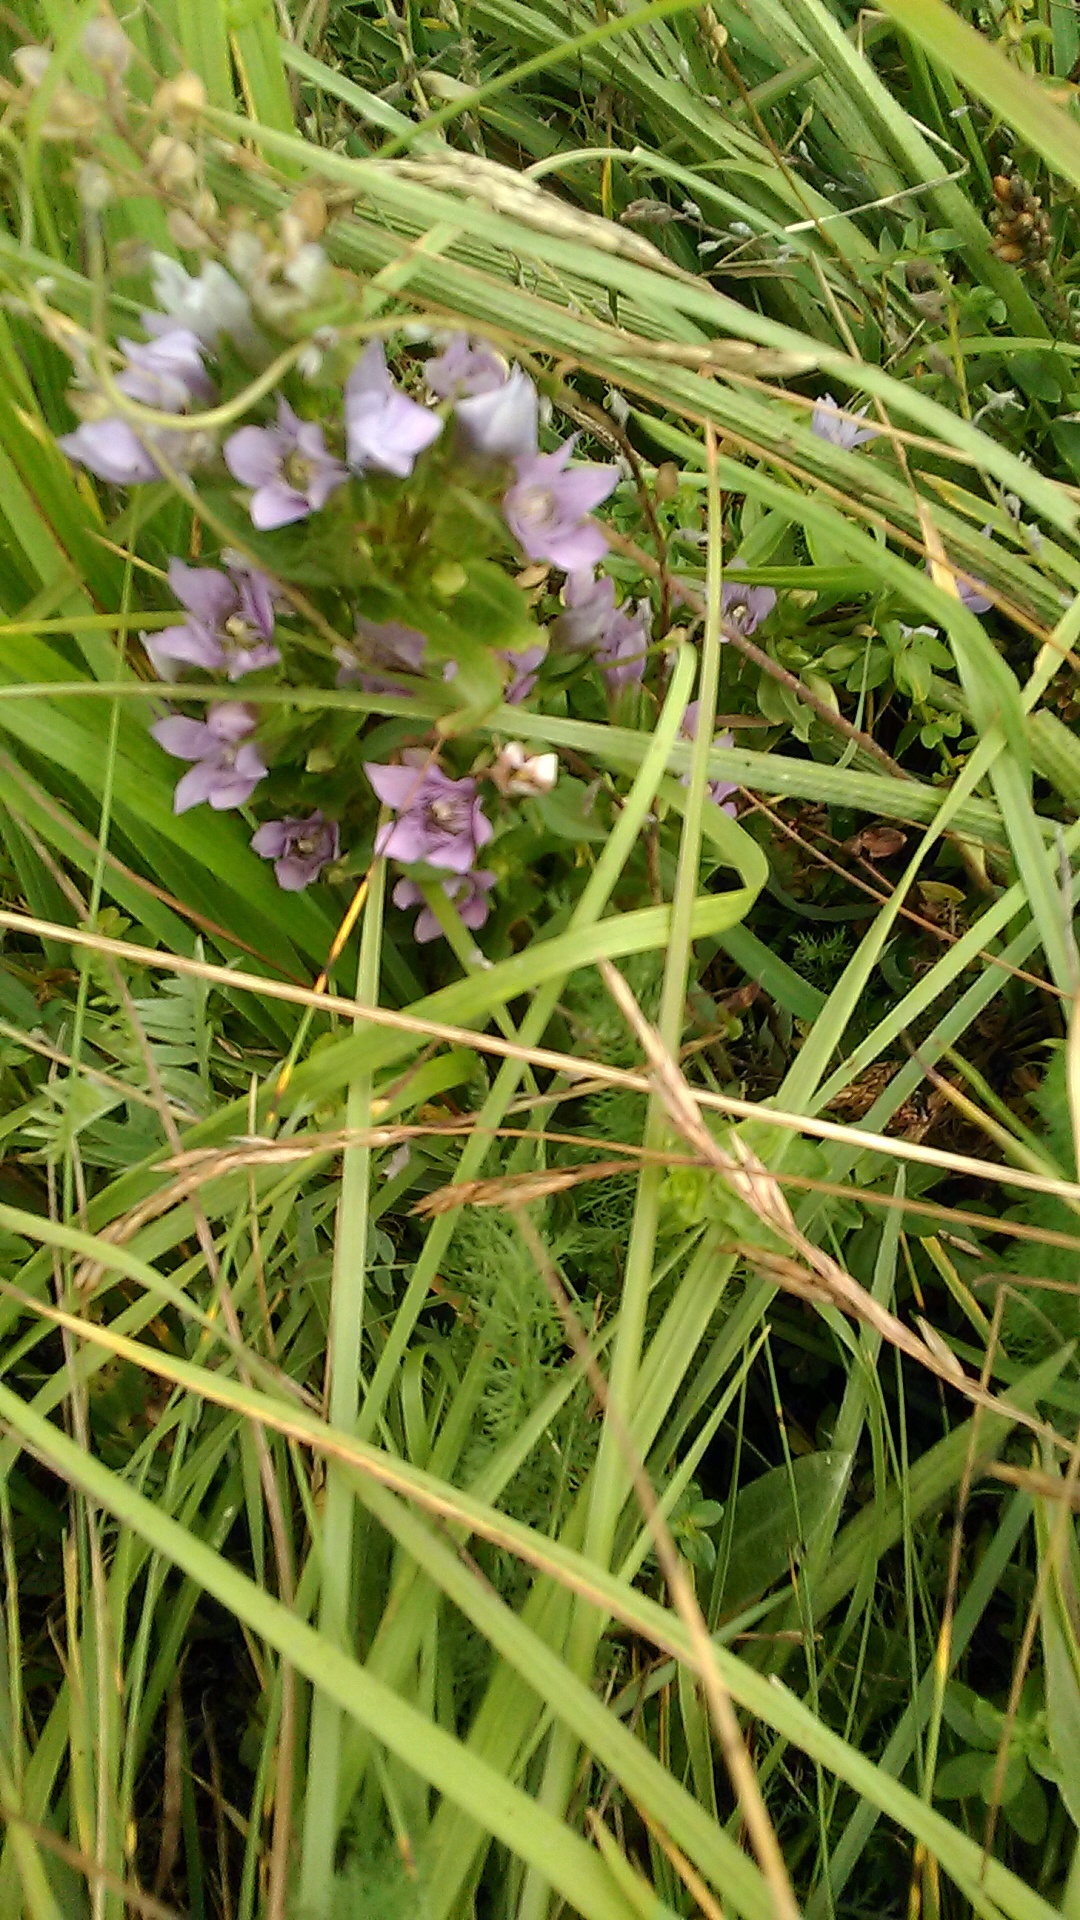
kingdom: Plantae
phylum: Tracheophyta
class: Magnoliopsida
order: Gentianales
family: Gentianaceae
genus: Gentianella
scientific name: Gentianella biebersteinii
